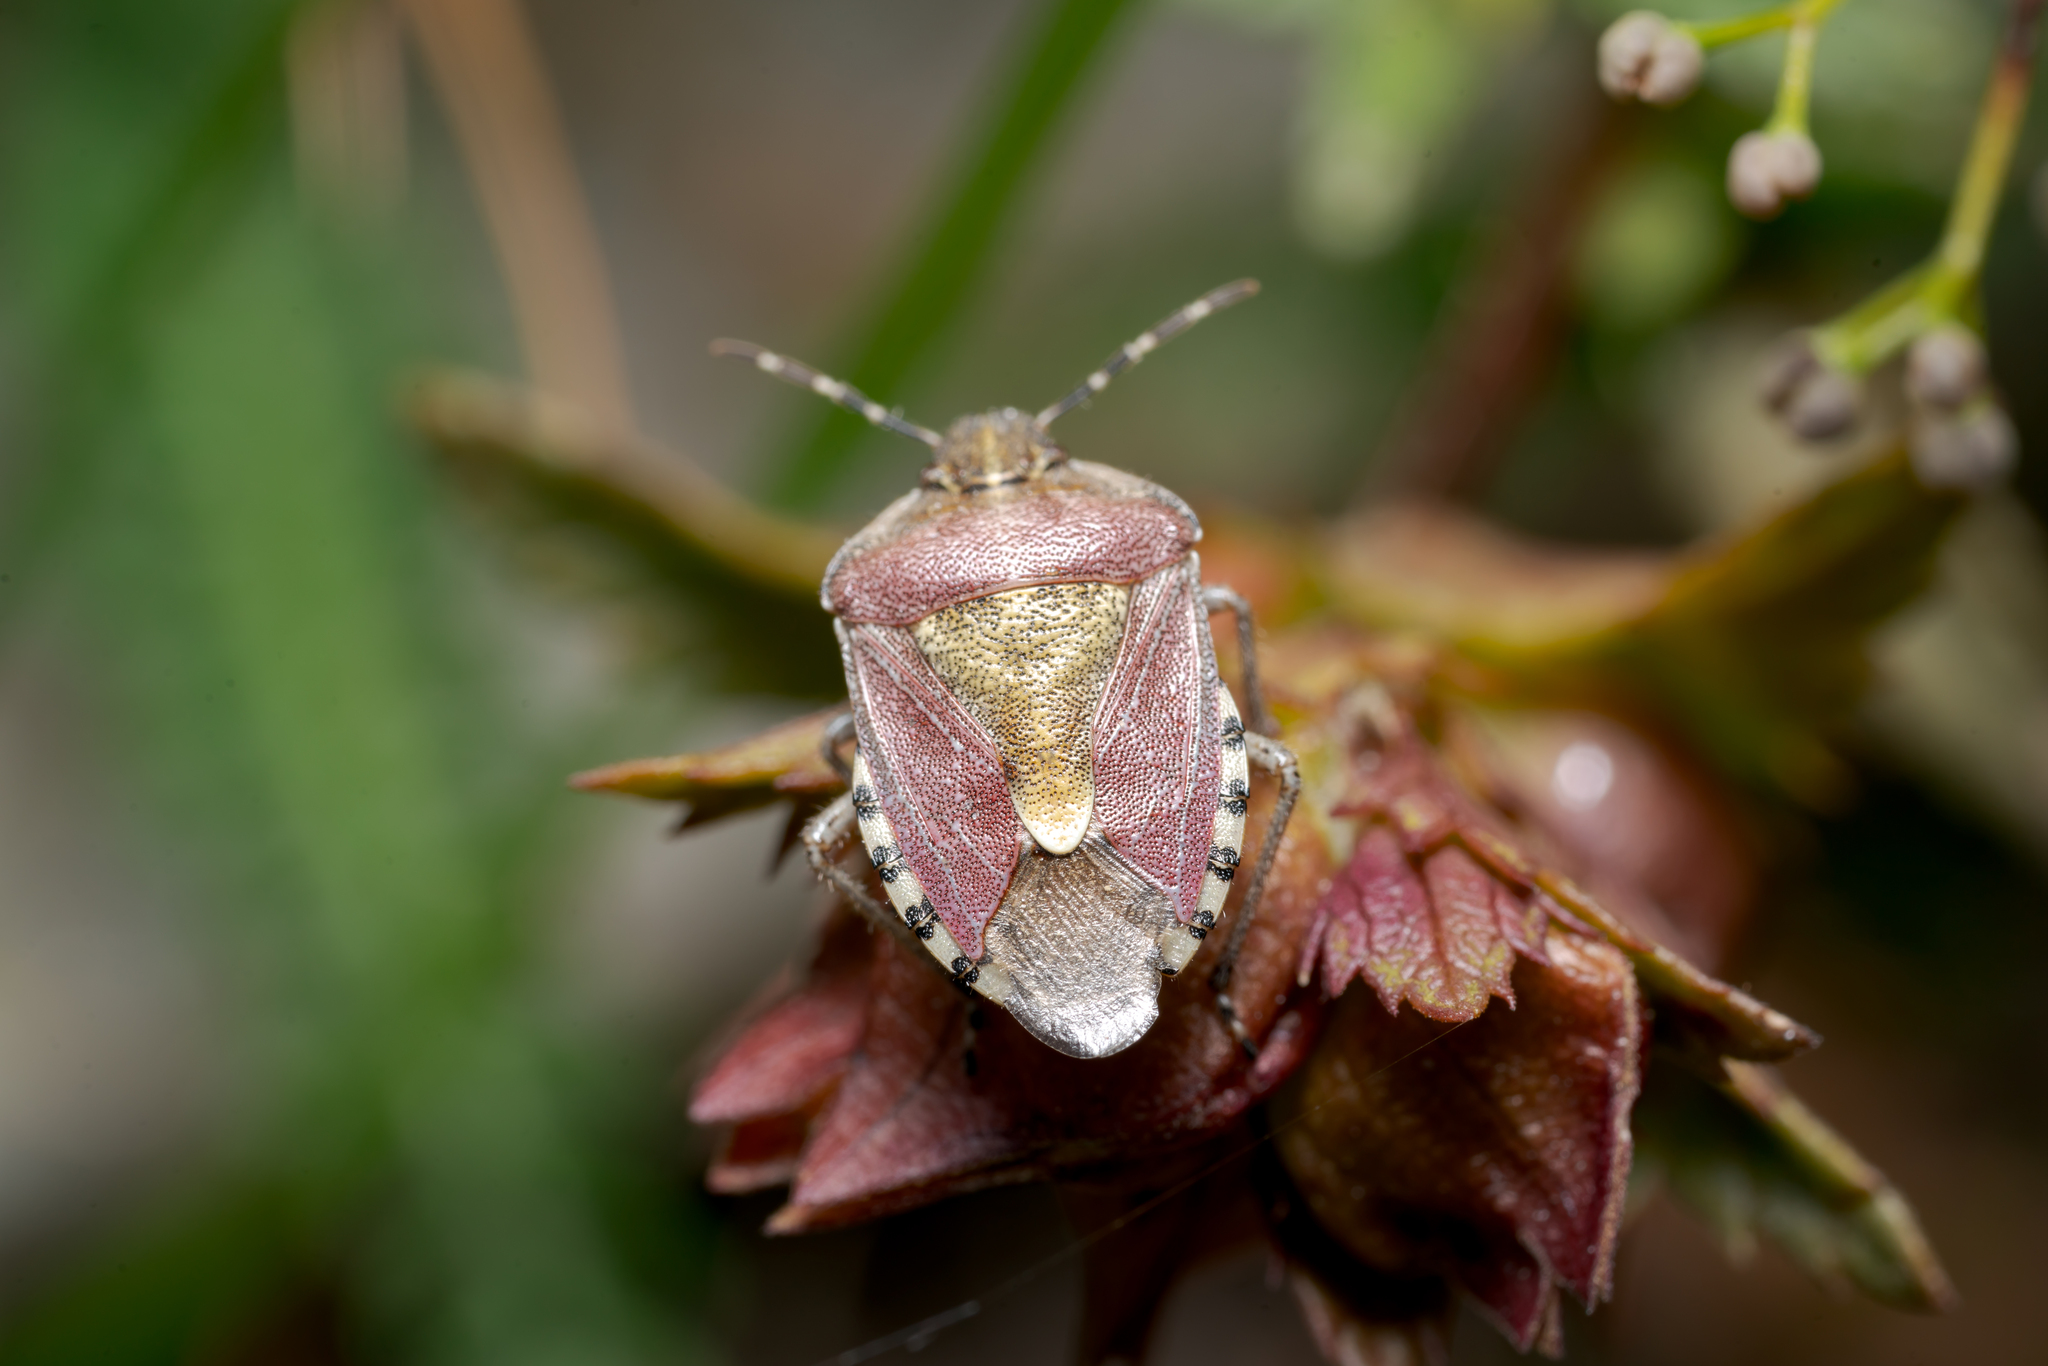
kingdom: Animalia
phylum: Arthropoda
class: Insecta
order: Hemiptera
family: Pentatomidae
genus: Dolycoris
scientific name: Dolycoris baccarum
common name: Sloe bug
